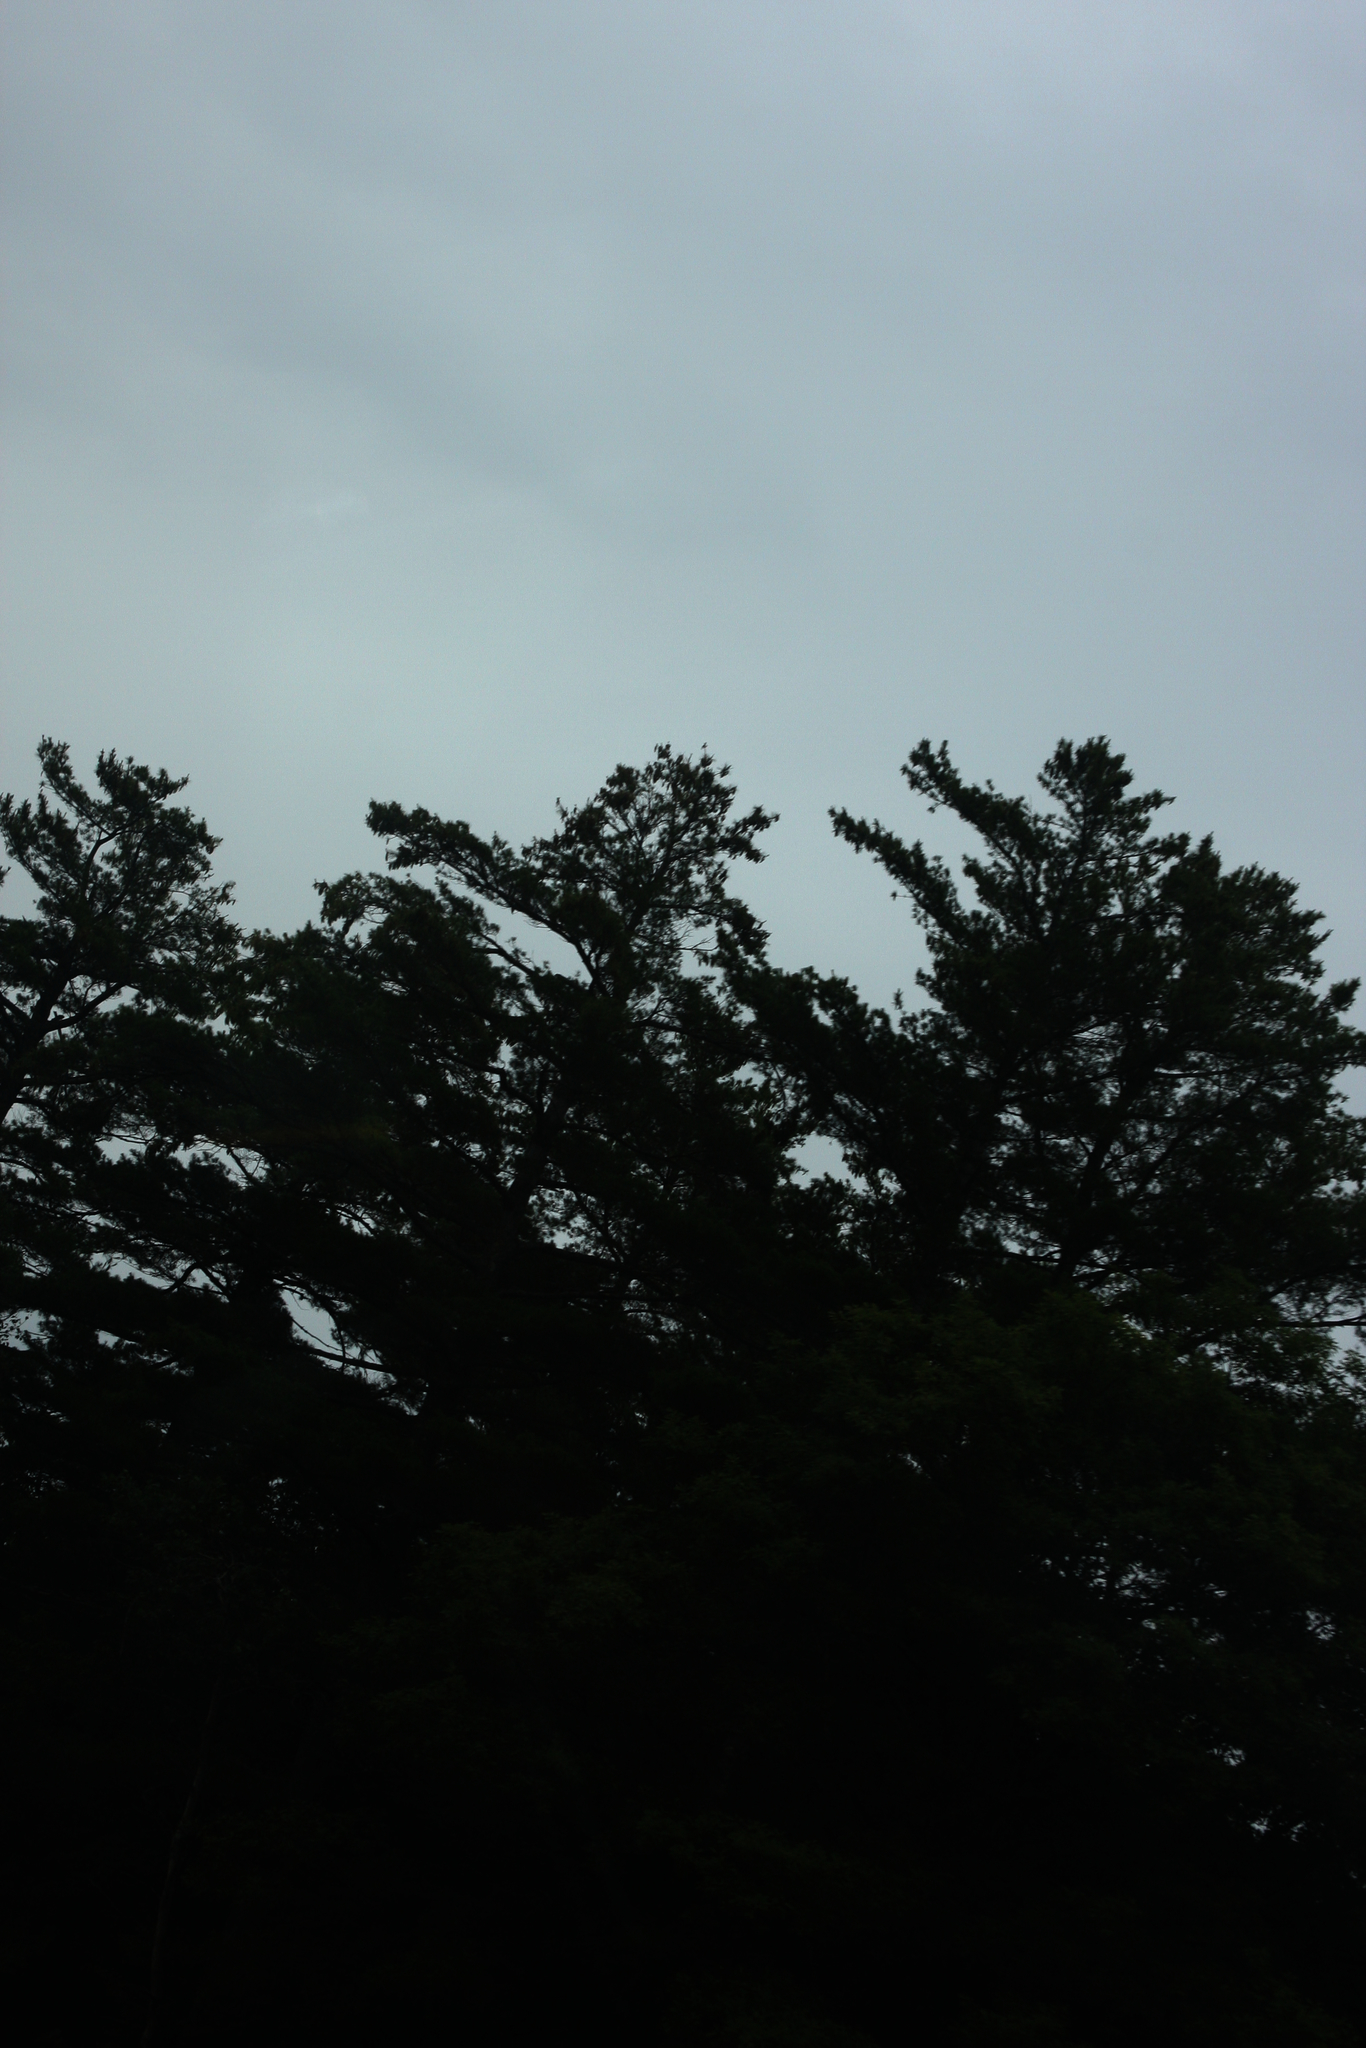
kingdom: Plantae
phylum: Tracheophyta
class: Pinopsida
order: Pinales
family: Pinaceae
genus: Pinus
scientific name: Pinus strobus
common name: Weymouth pine
